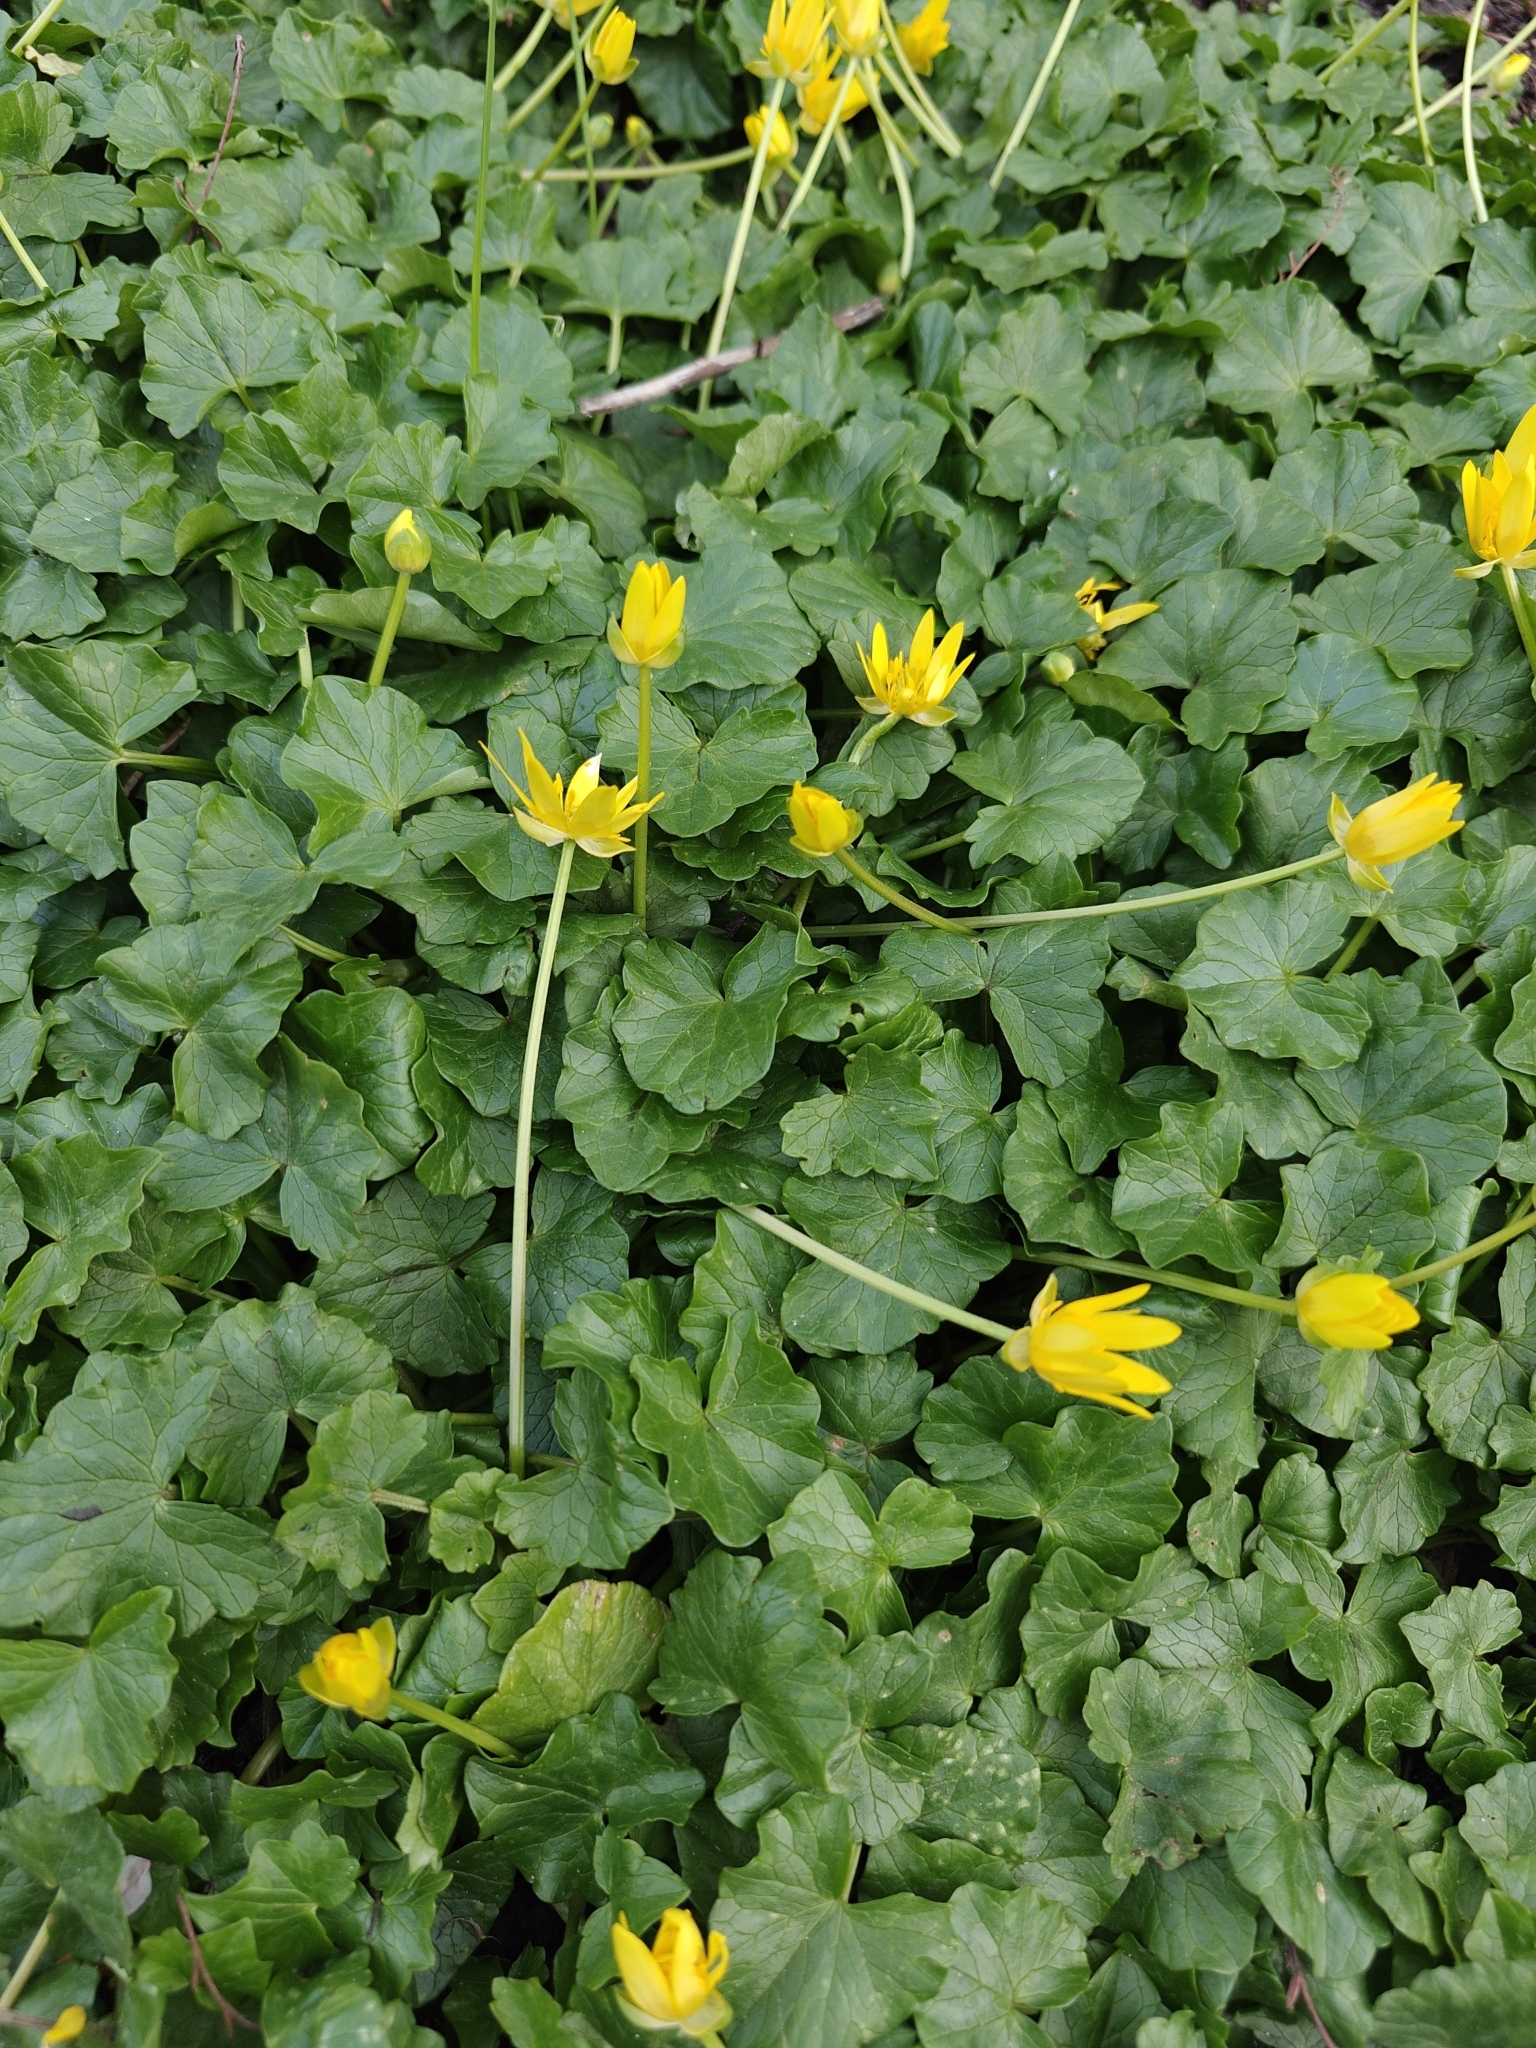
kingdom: Plantae
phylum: Tracheophyta
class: Magnoliopsida
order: Ranunculales
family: Ranunculaceae
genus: Ficaria
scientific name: Ficaria verna
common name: Lesser celandine
